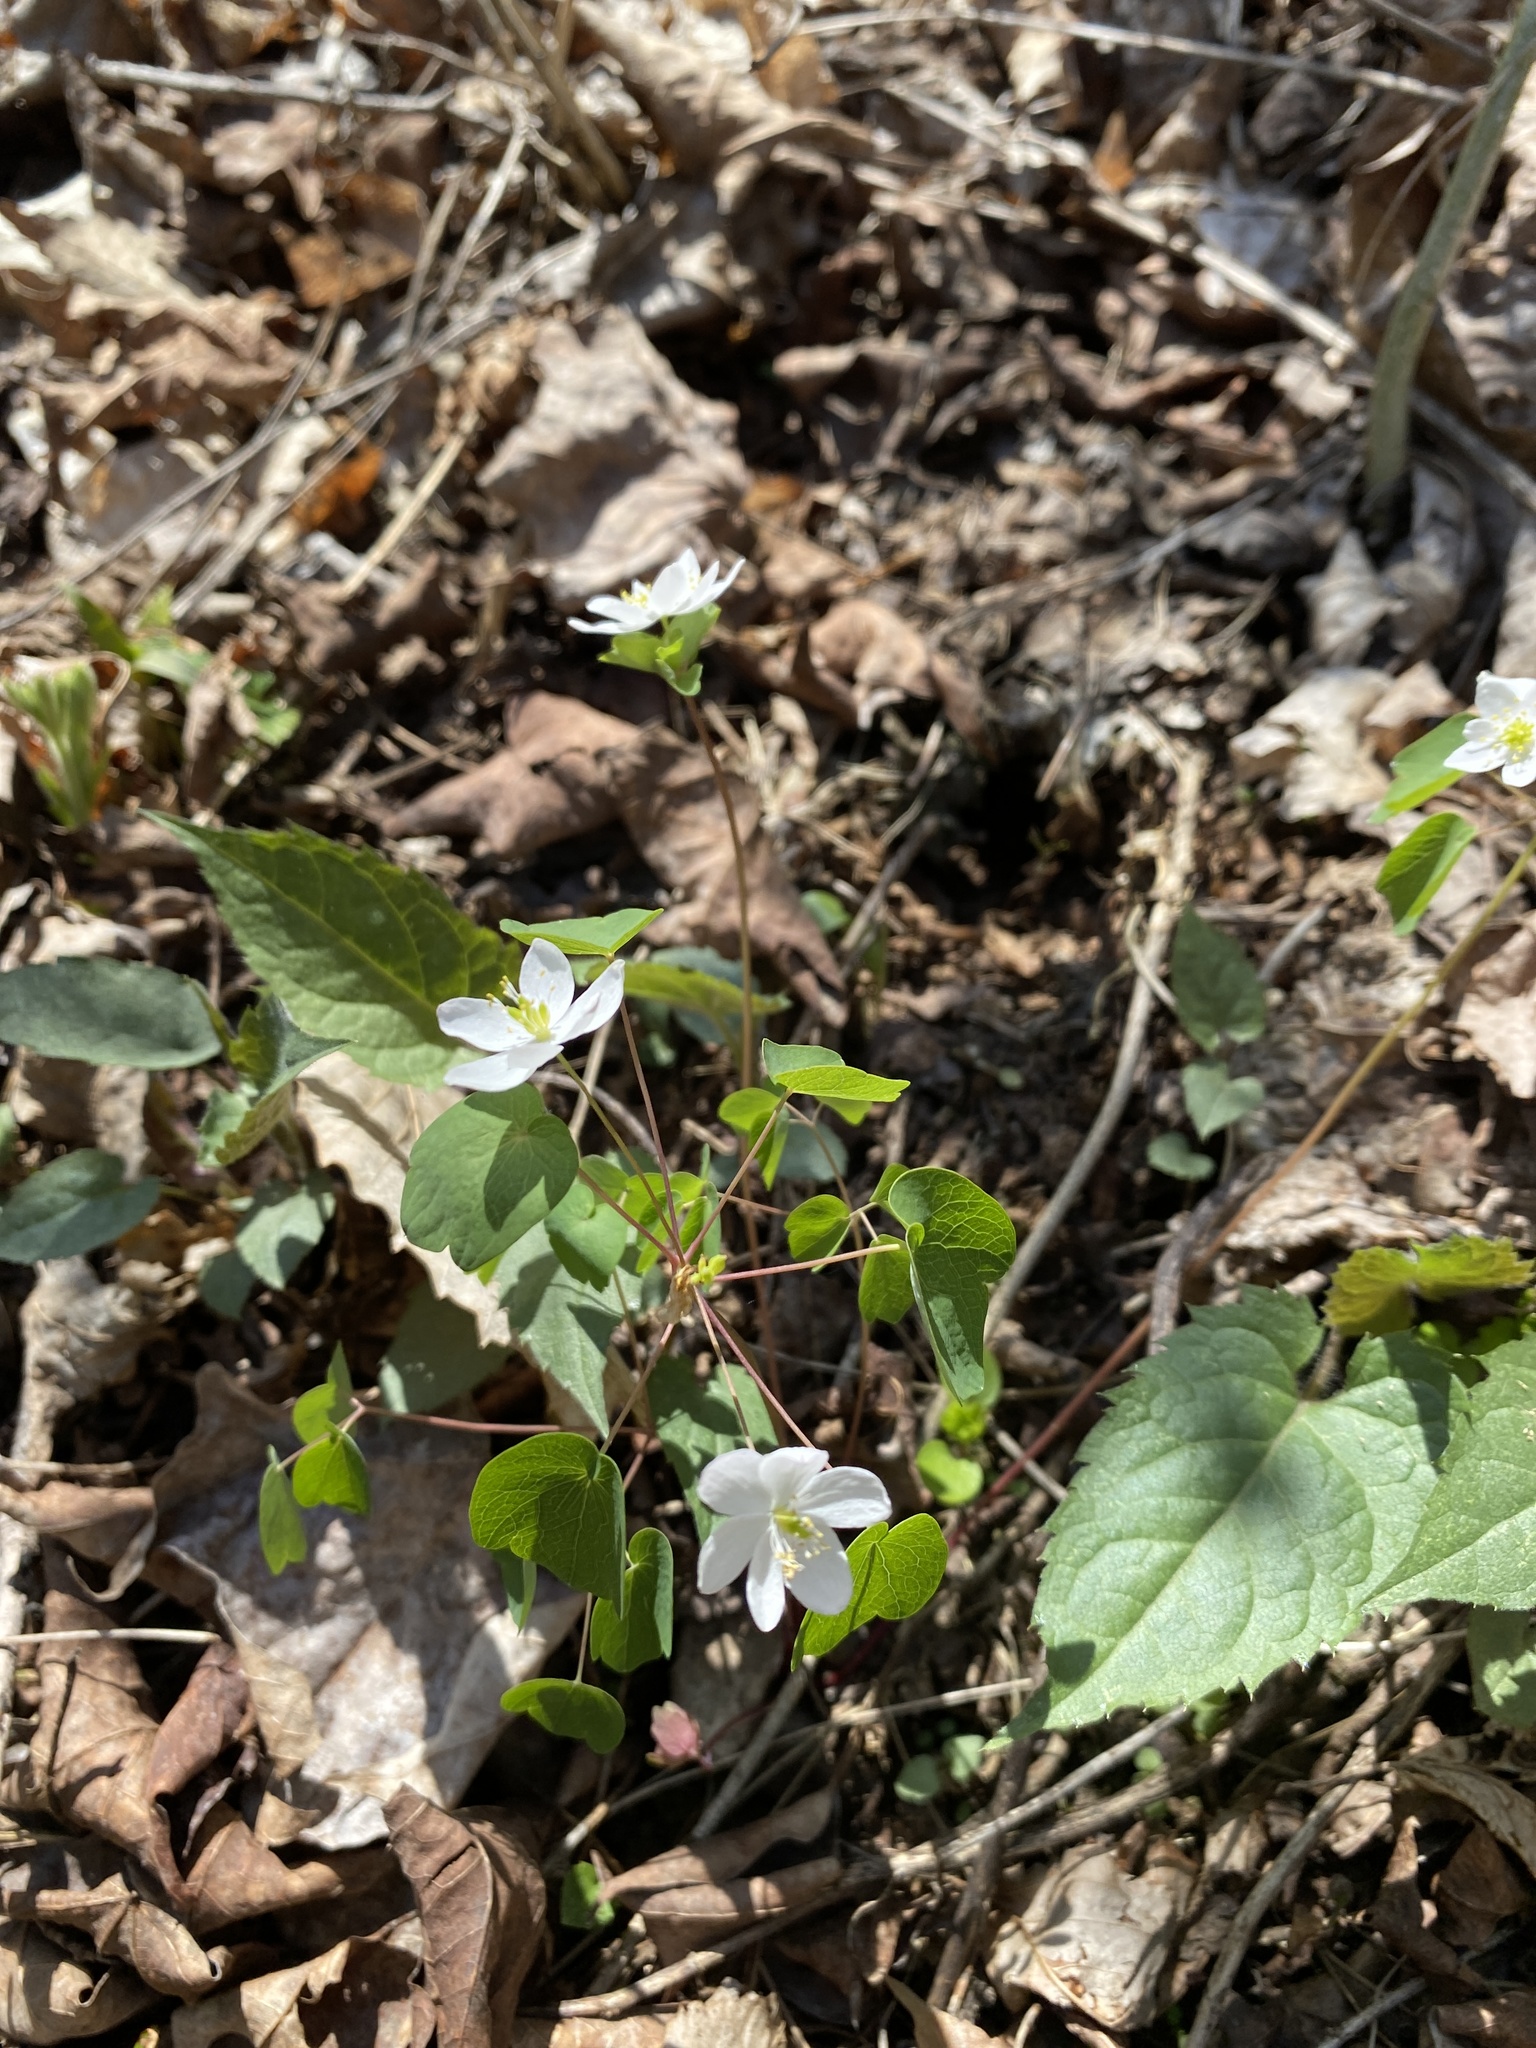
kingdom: Plantae
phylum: Tracheophyta
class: Magnoliopsida
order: Ranunculales
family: Ranunculaceae
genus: Thalictrum
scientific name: Thalictrum thalictroides
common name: Rue-anemone
